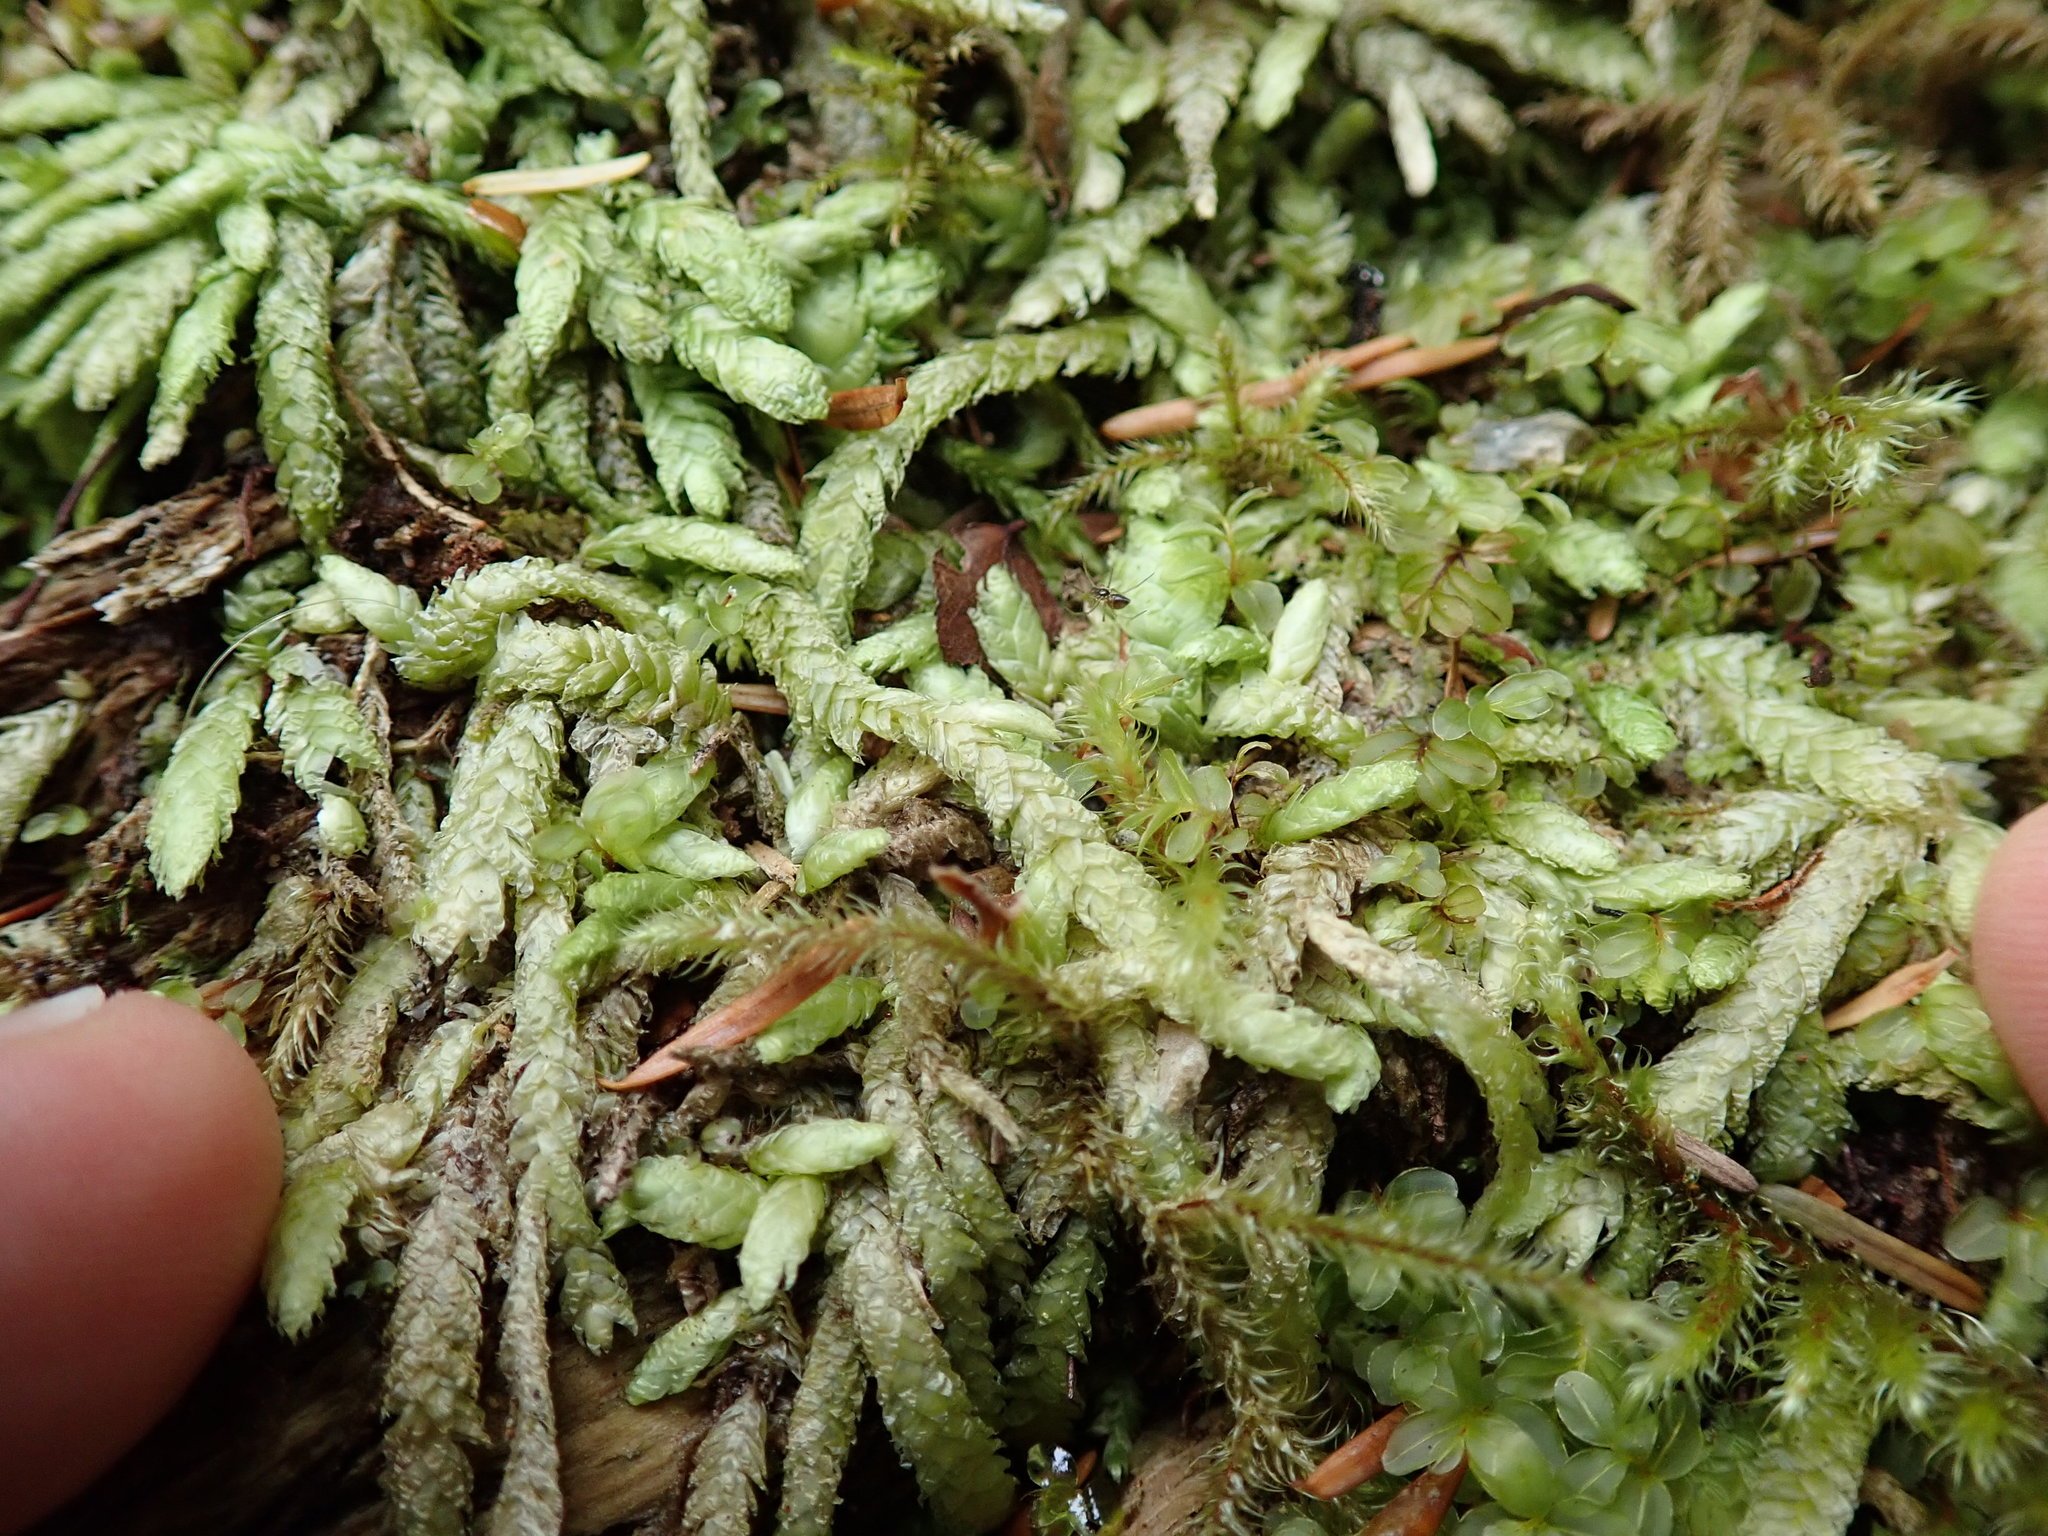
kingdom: Plantae
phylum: Bryophyta
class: Bryopsida
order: Hypnales
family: Plagiotheciaceae
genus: Plagiothecium
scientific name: Plagiothecium undulatum
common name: Waved silk-moss
